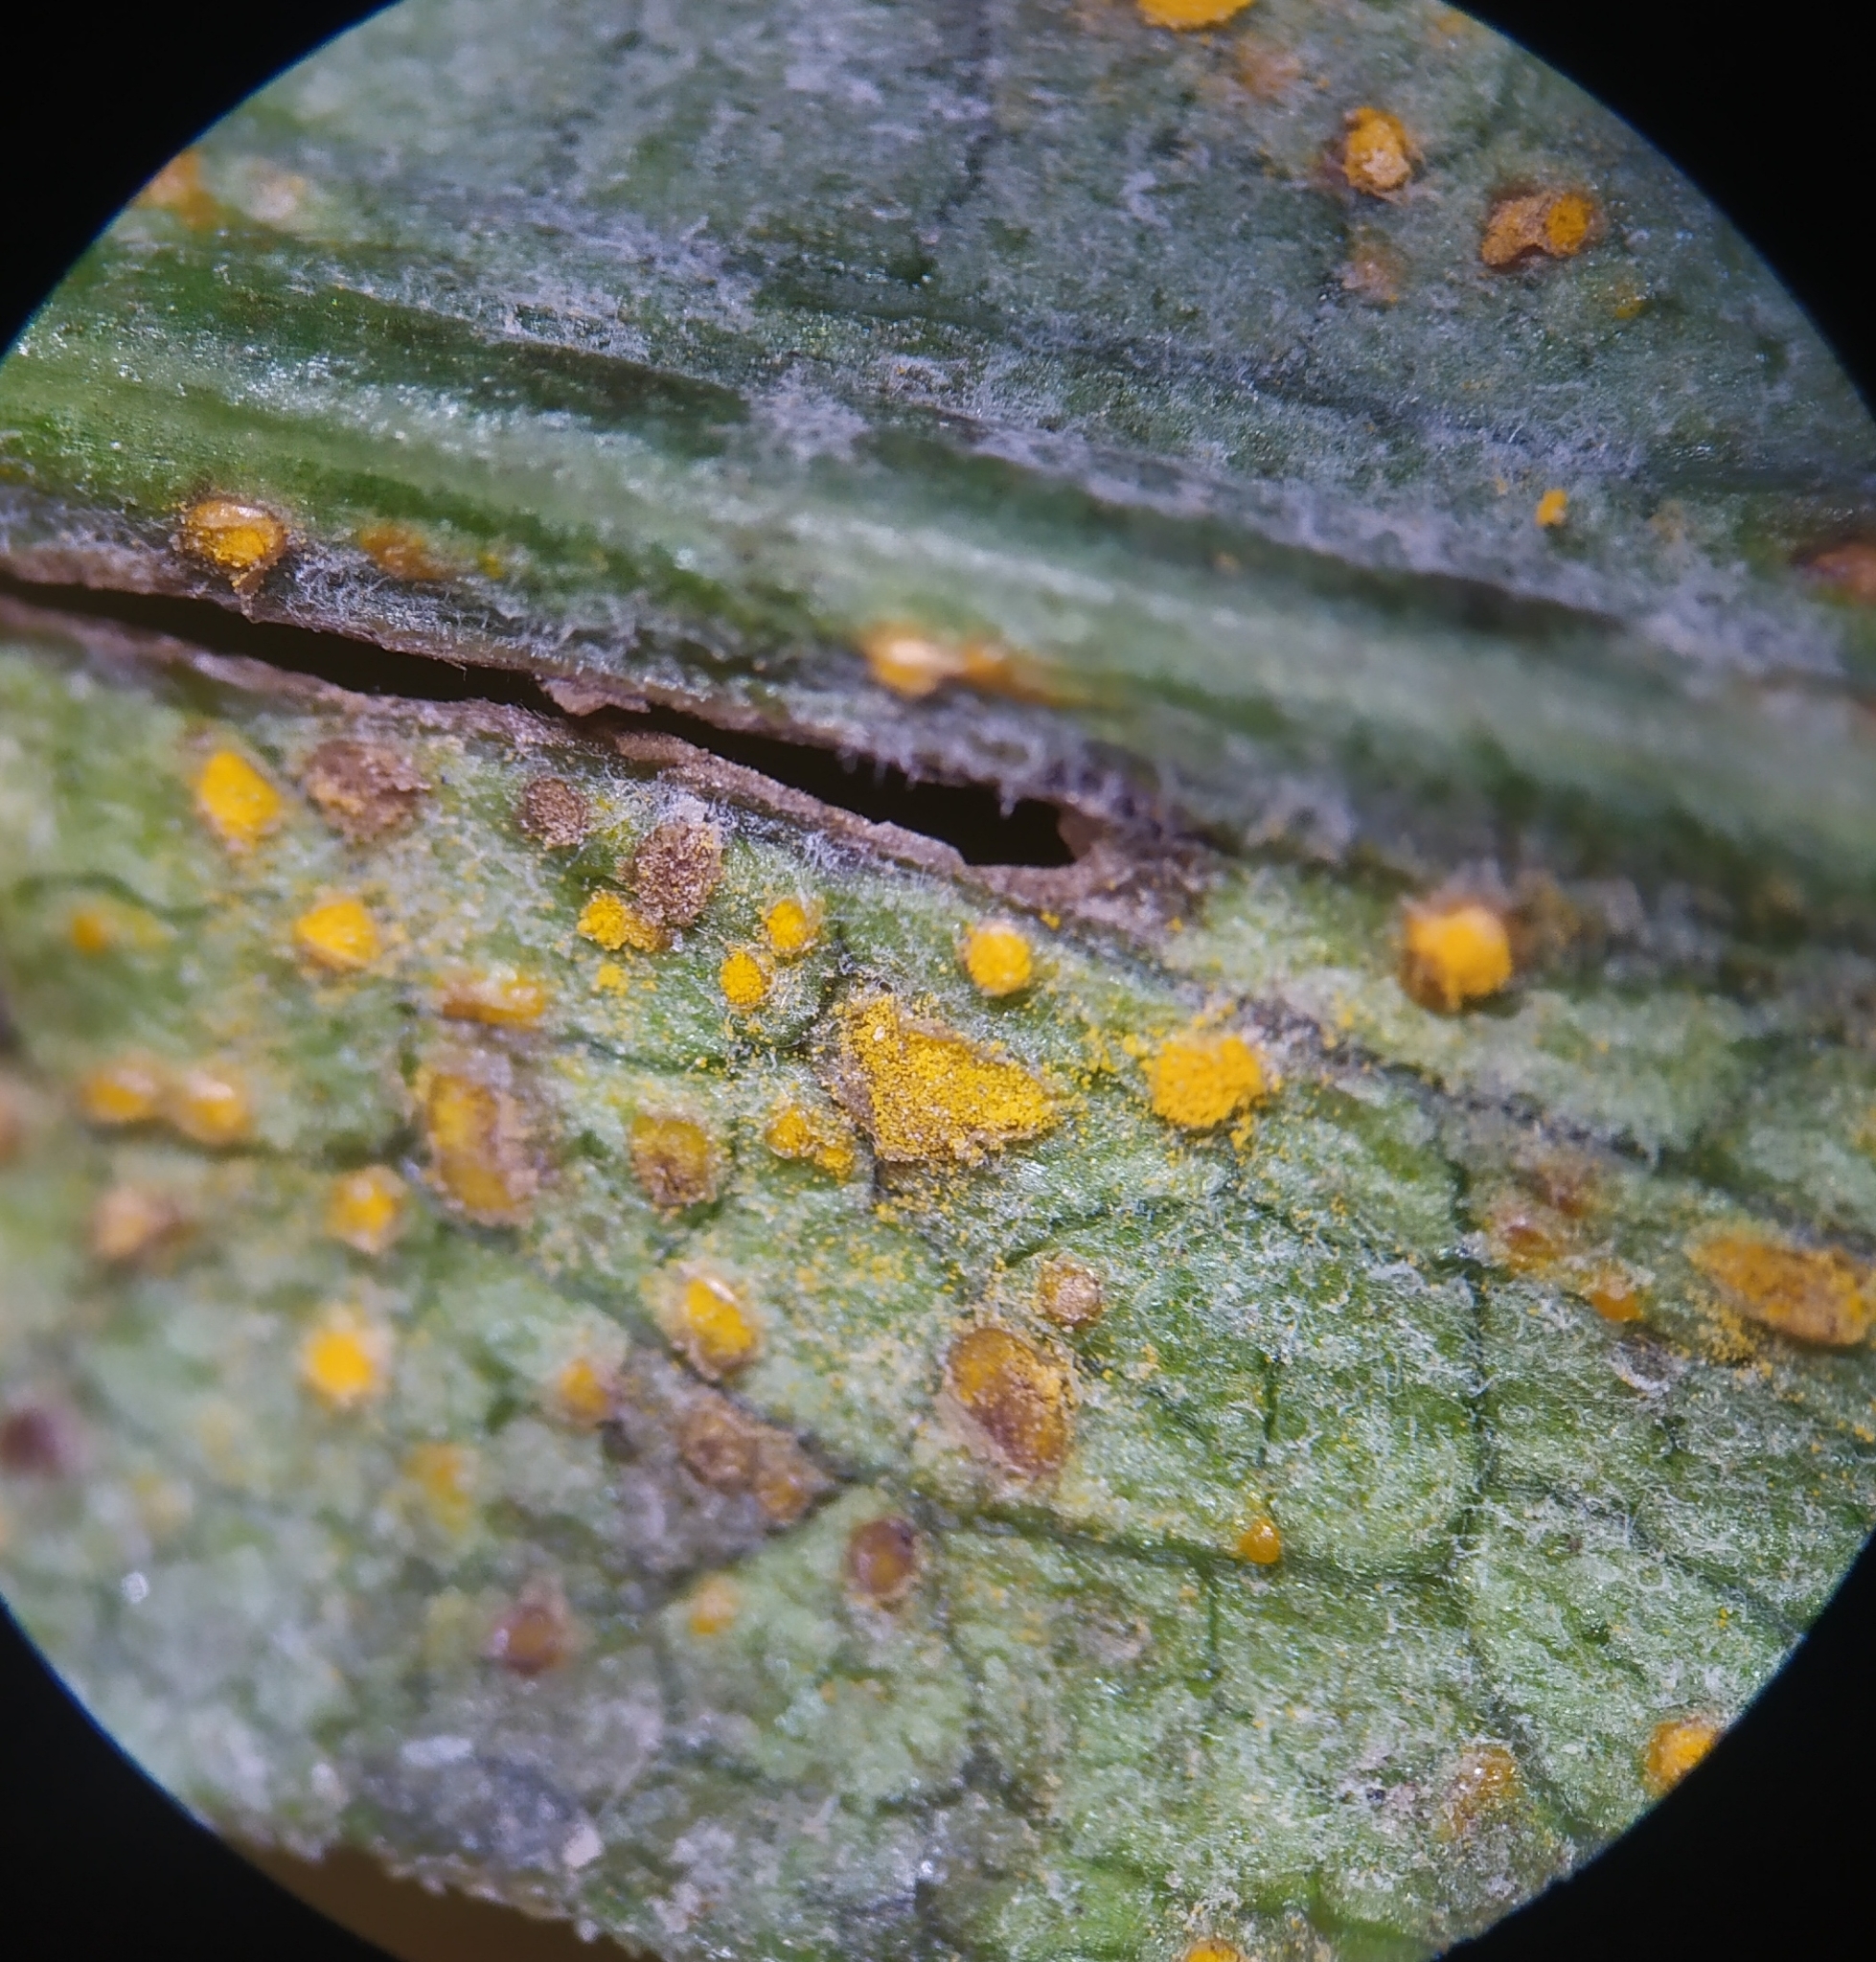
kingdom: Fungi
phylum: Basidiomycota
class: Pucciniomycetes
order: Pucciniales
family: Coleosporiaceae
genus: Coleosporium
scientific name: Coleosporium asterum
